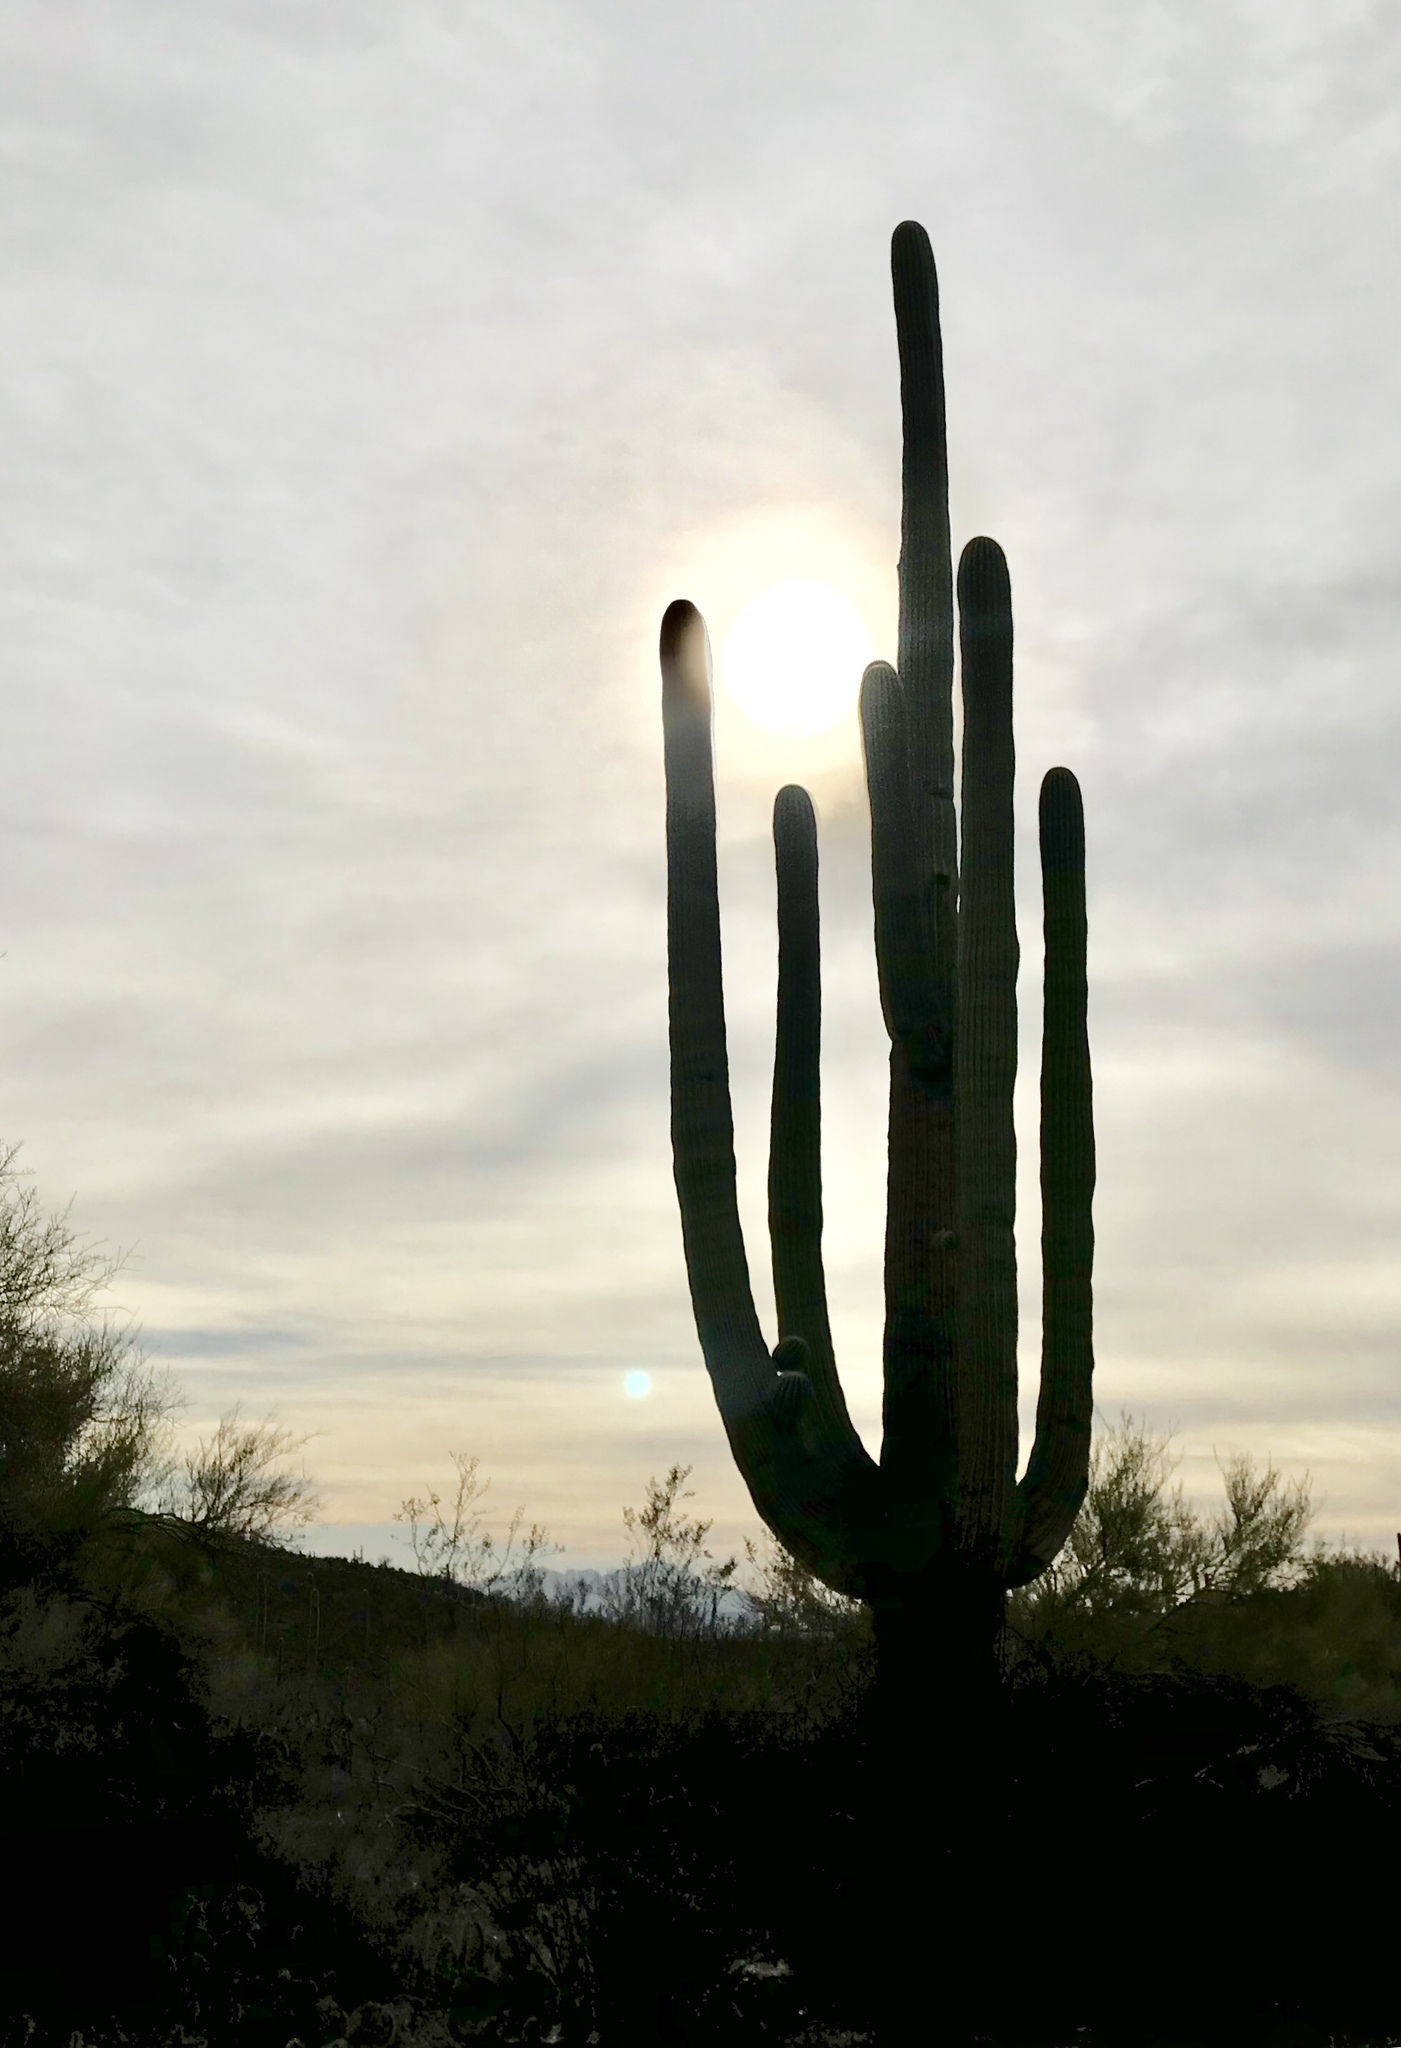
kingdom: Plantae
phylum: Tracheophyta
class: Magnoliopsida
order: Caryophyllales
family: Cactaceae
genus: Carnegiea
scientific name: Carnegiea gigantea
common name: Saguaro
